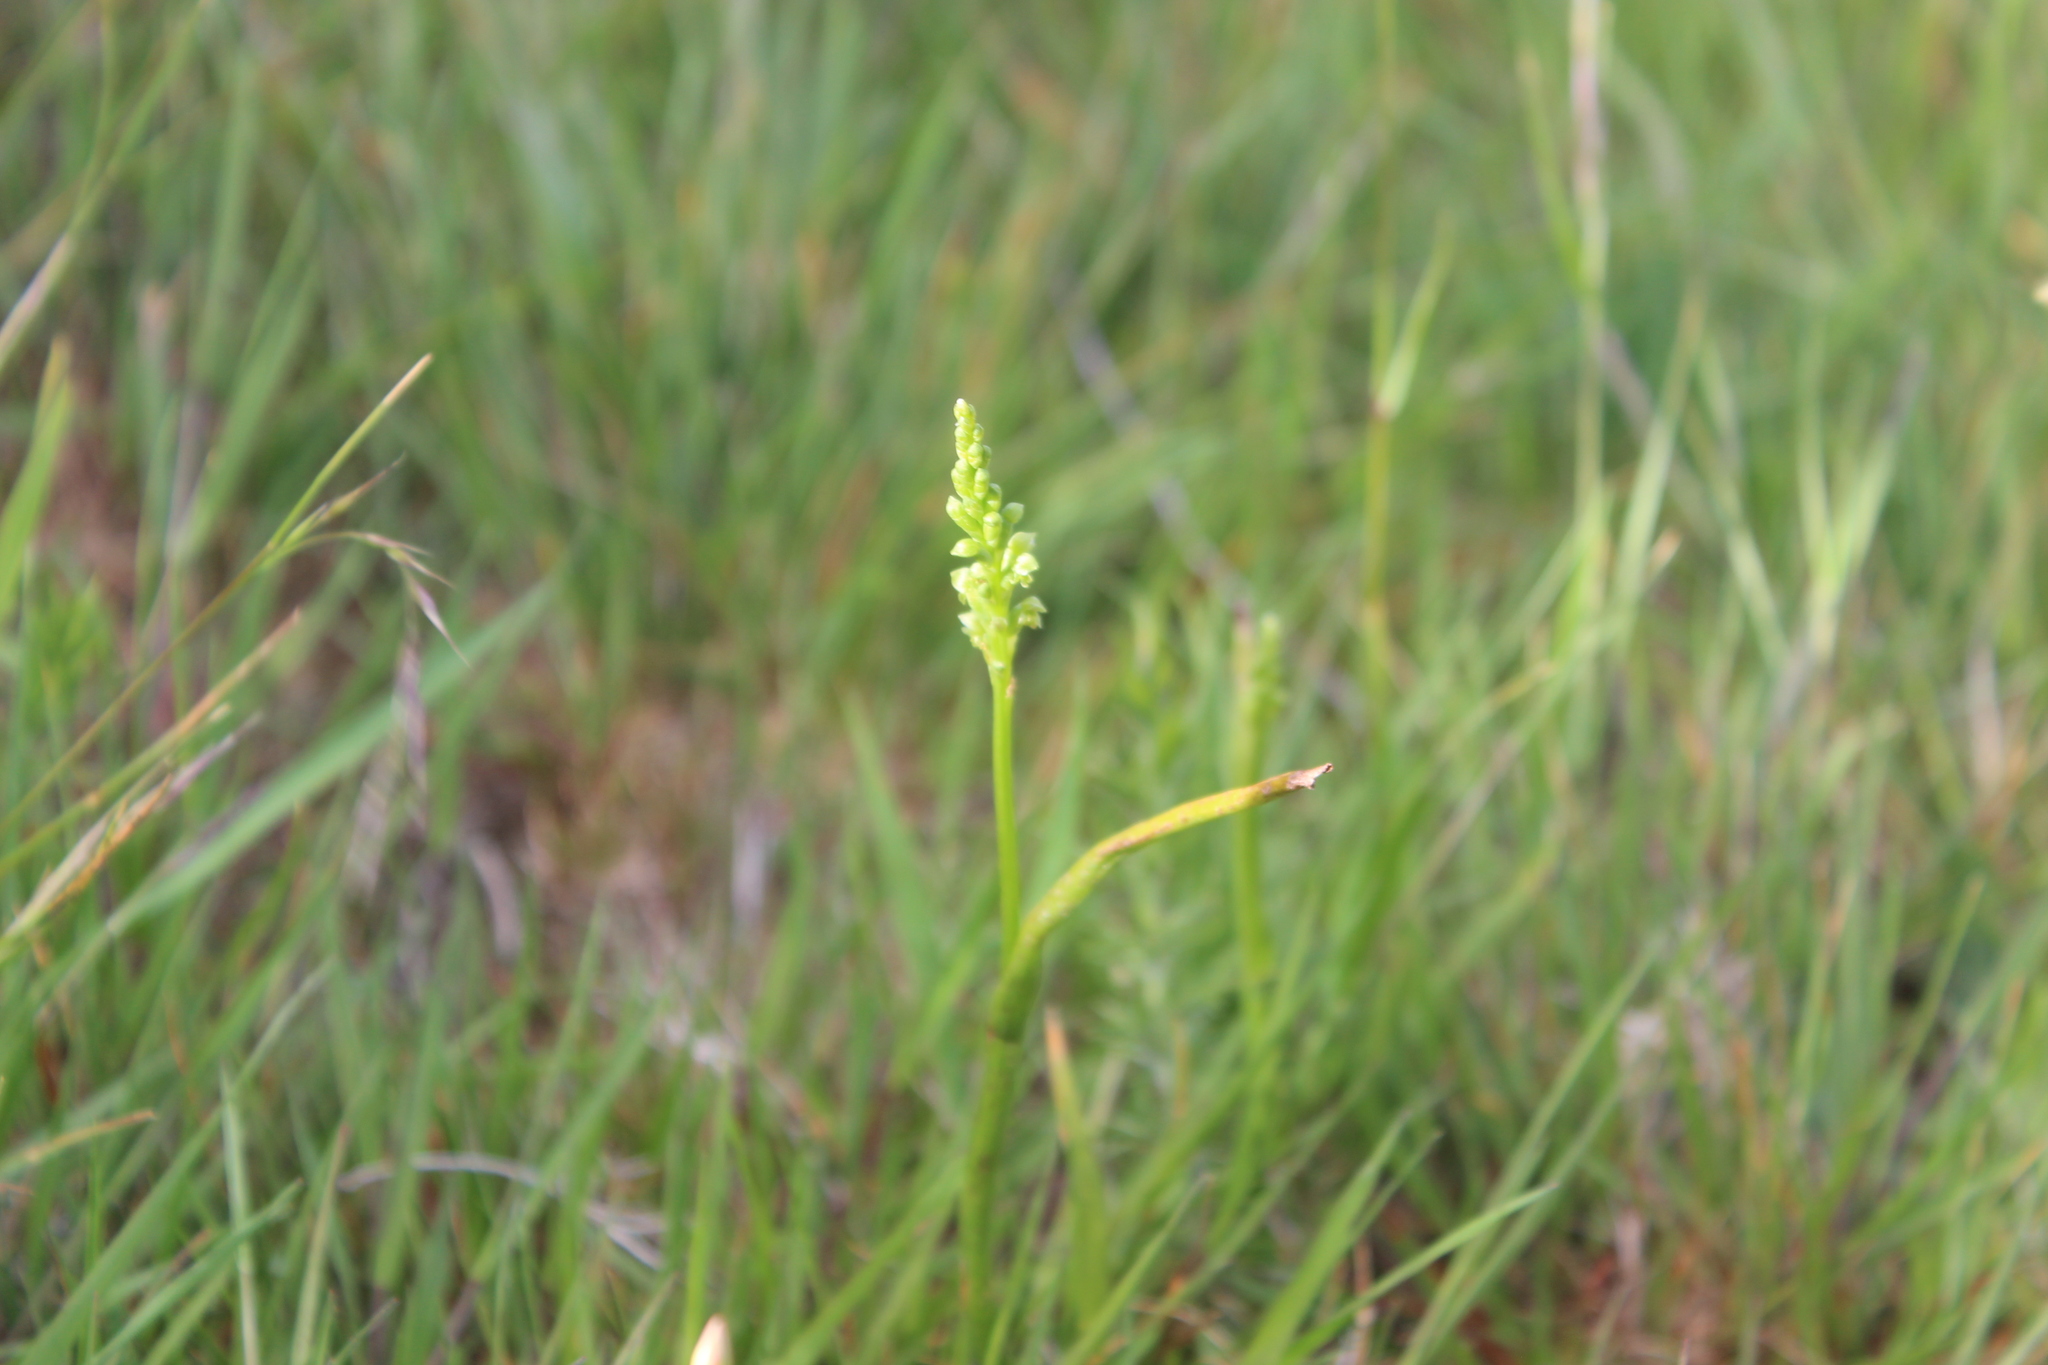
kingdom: Plantae
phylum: Tracheophyta
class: Liliopsida
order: Asparagales
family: Orchidaceae
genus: Microtis
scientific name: Microtis unifolia
